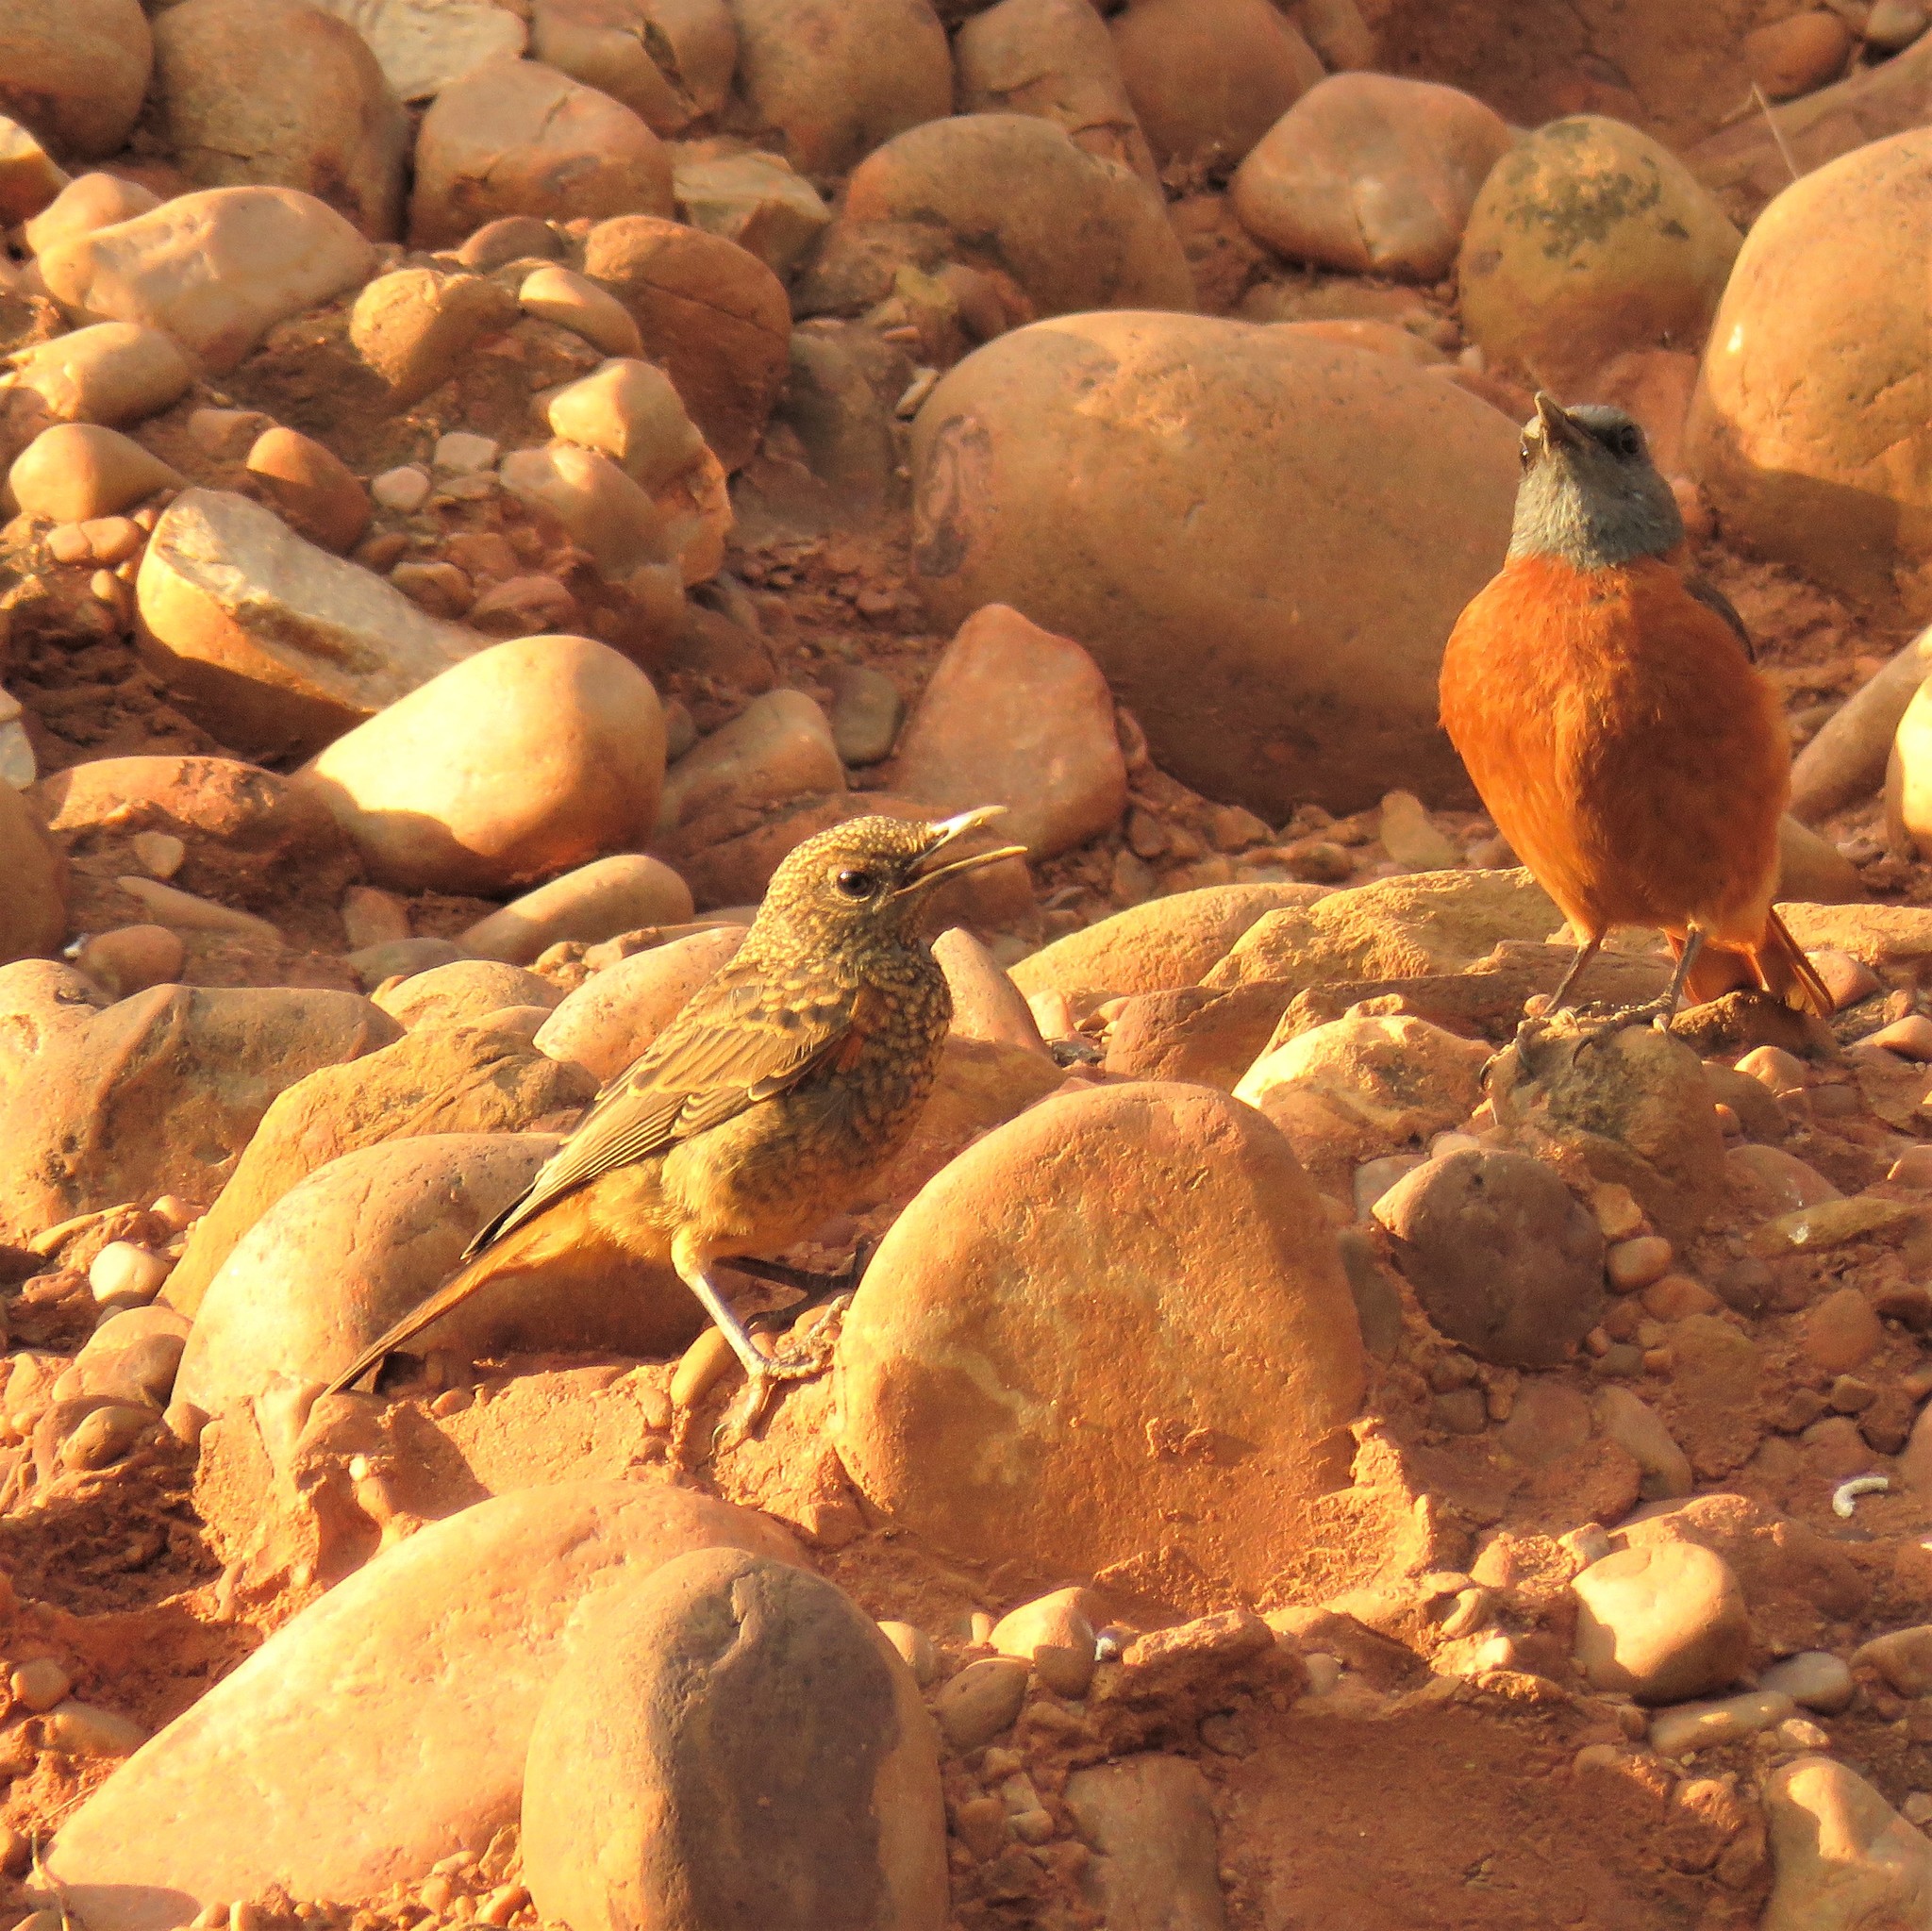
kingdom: Animalia
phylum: Chordata
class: Aves
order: Passeriformes
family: Muscicapidae
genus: Monticola
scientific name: Monticola rupestris
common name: Cape rock thrush
